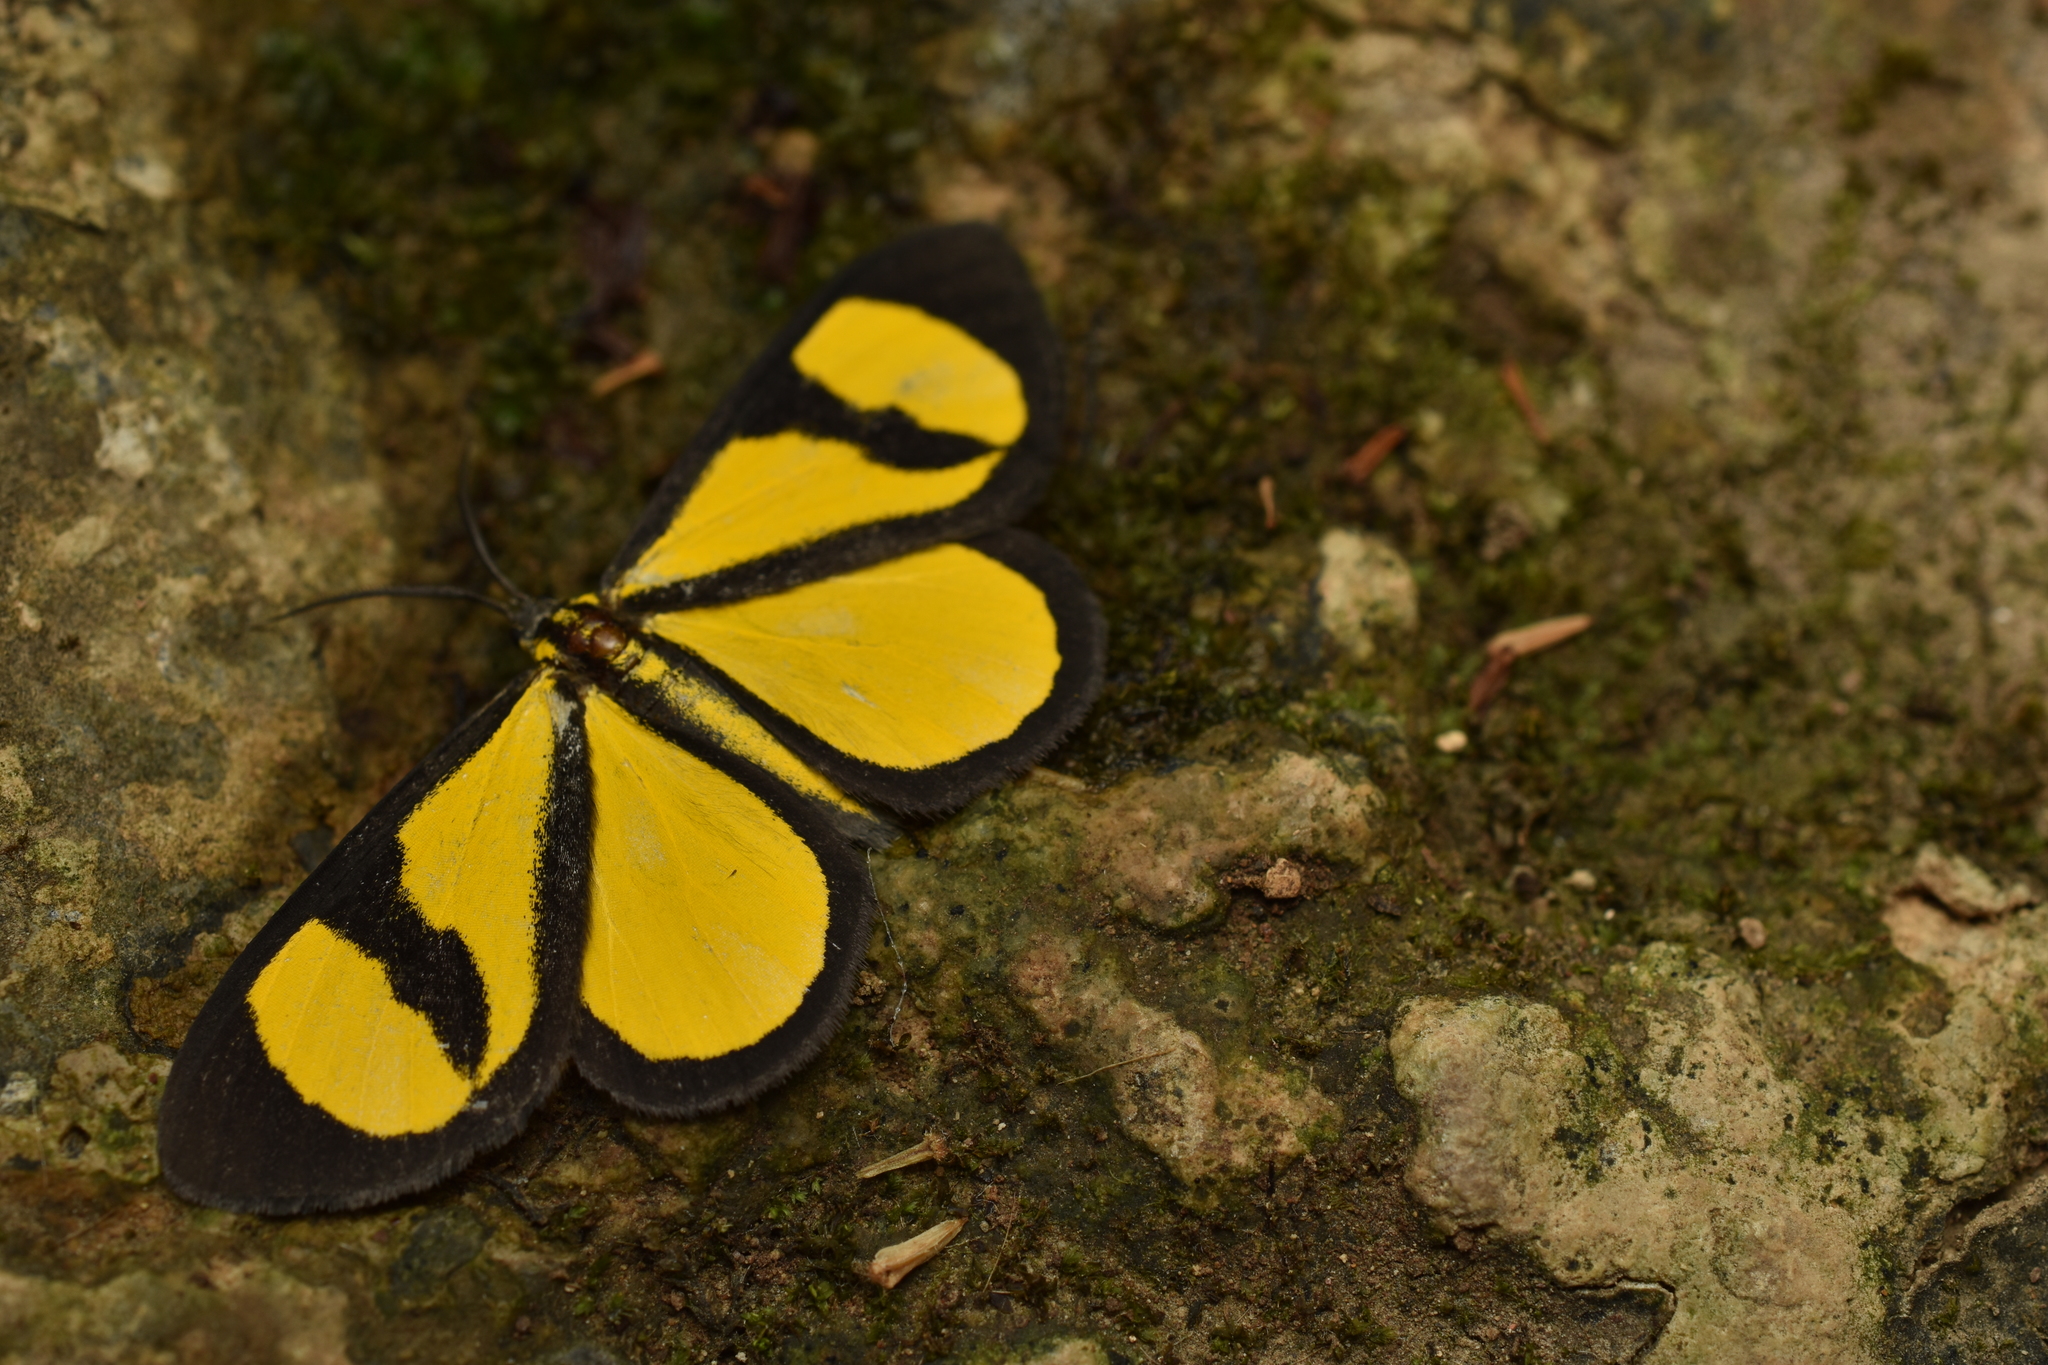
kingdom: Animalia
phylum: Arthropoda
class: Insecta
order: Lepidoptera
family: Geometridae
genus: Smicropus
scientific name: Smicropus laeta
